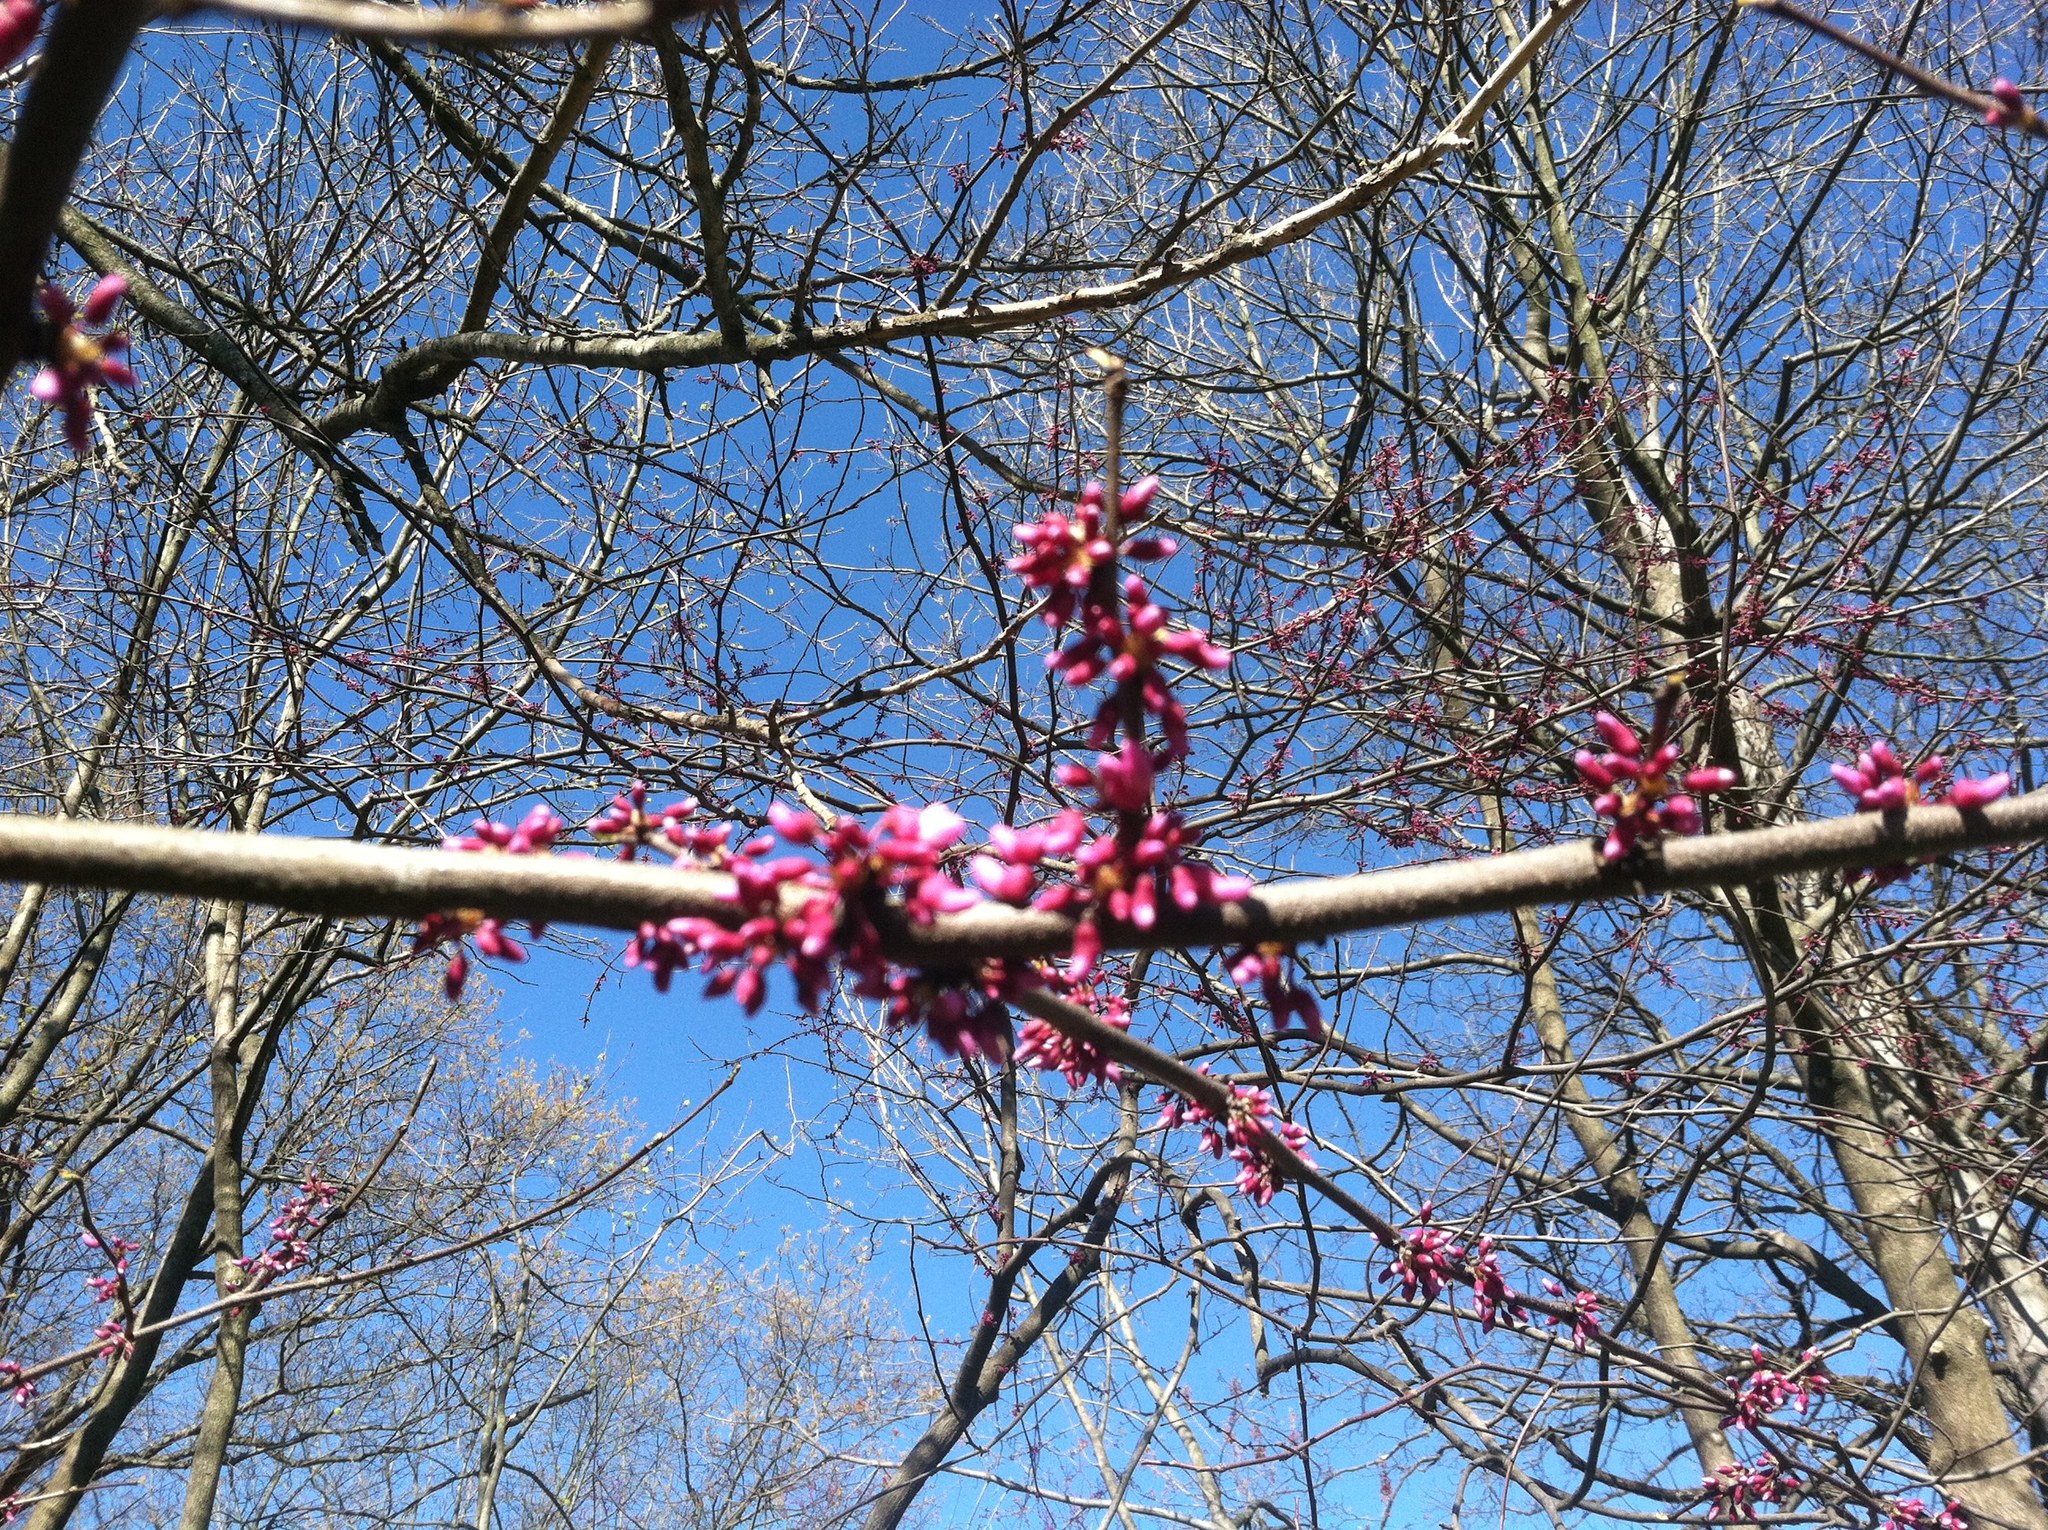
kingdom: Plantae
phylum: Tracheophyta
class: Magnoliopsida
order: Fabales
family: Fabaceae
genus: Cercis
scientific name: Cercis canadensis
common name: Eastern redbud
